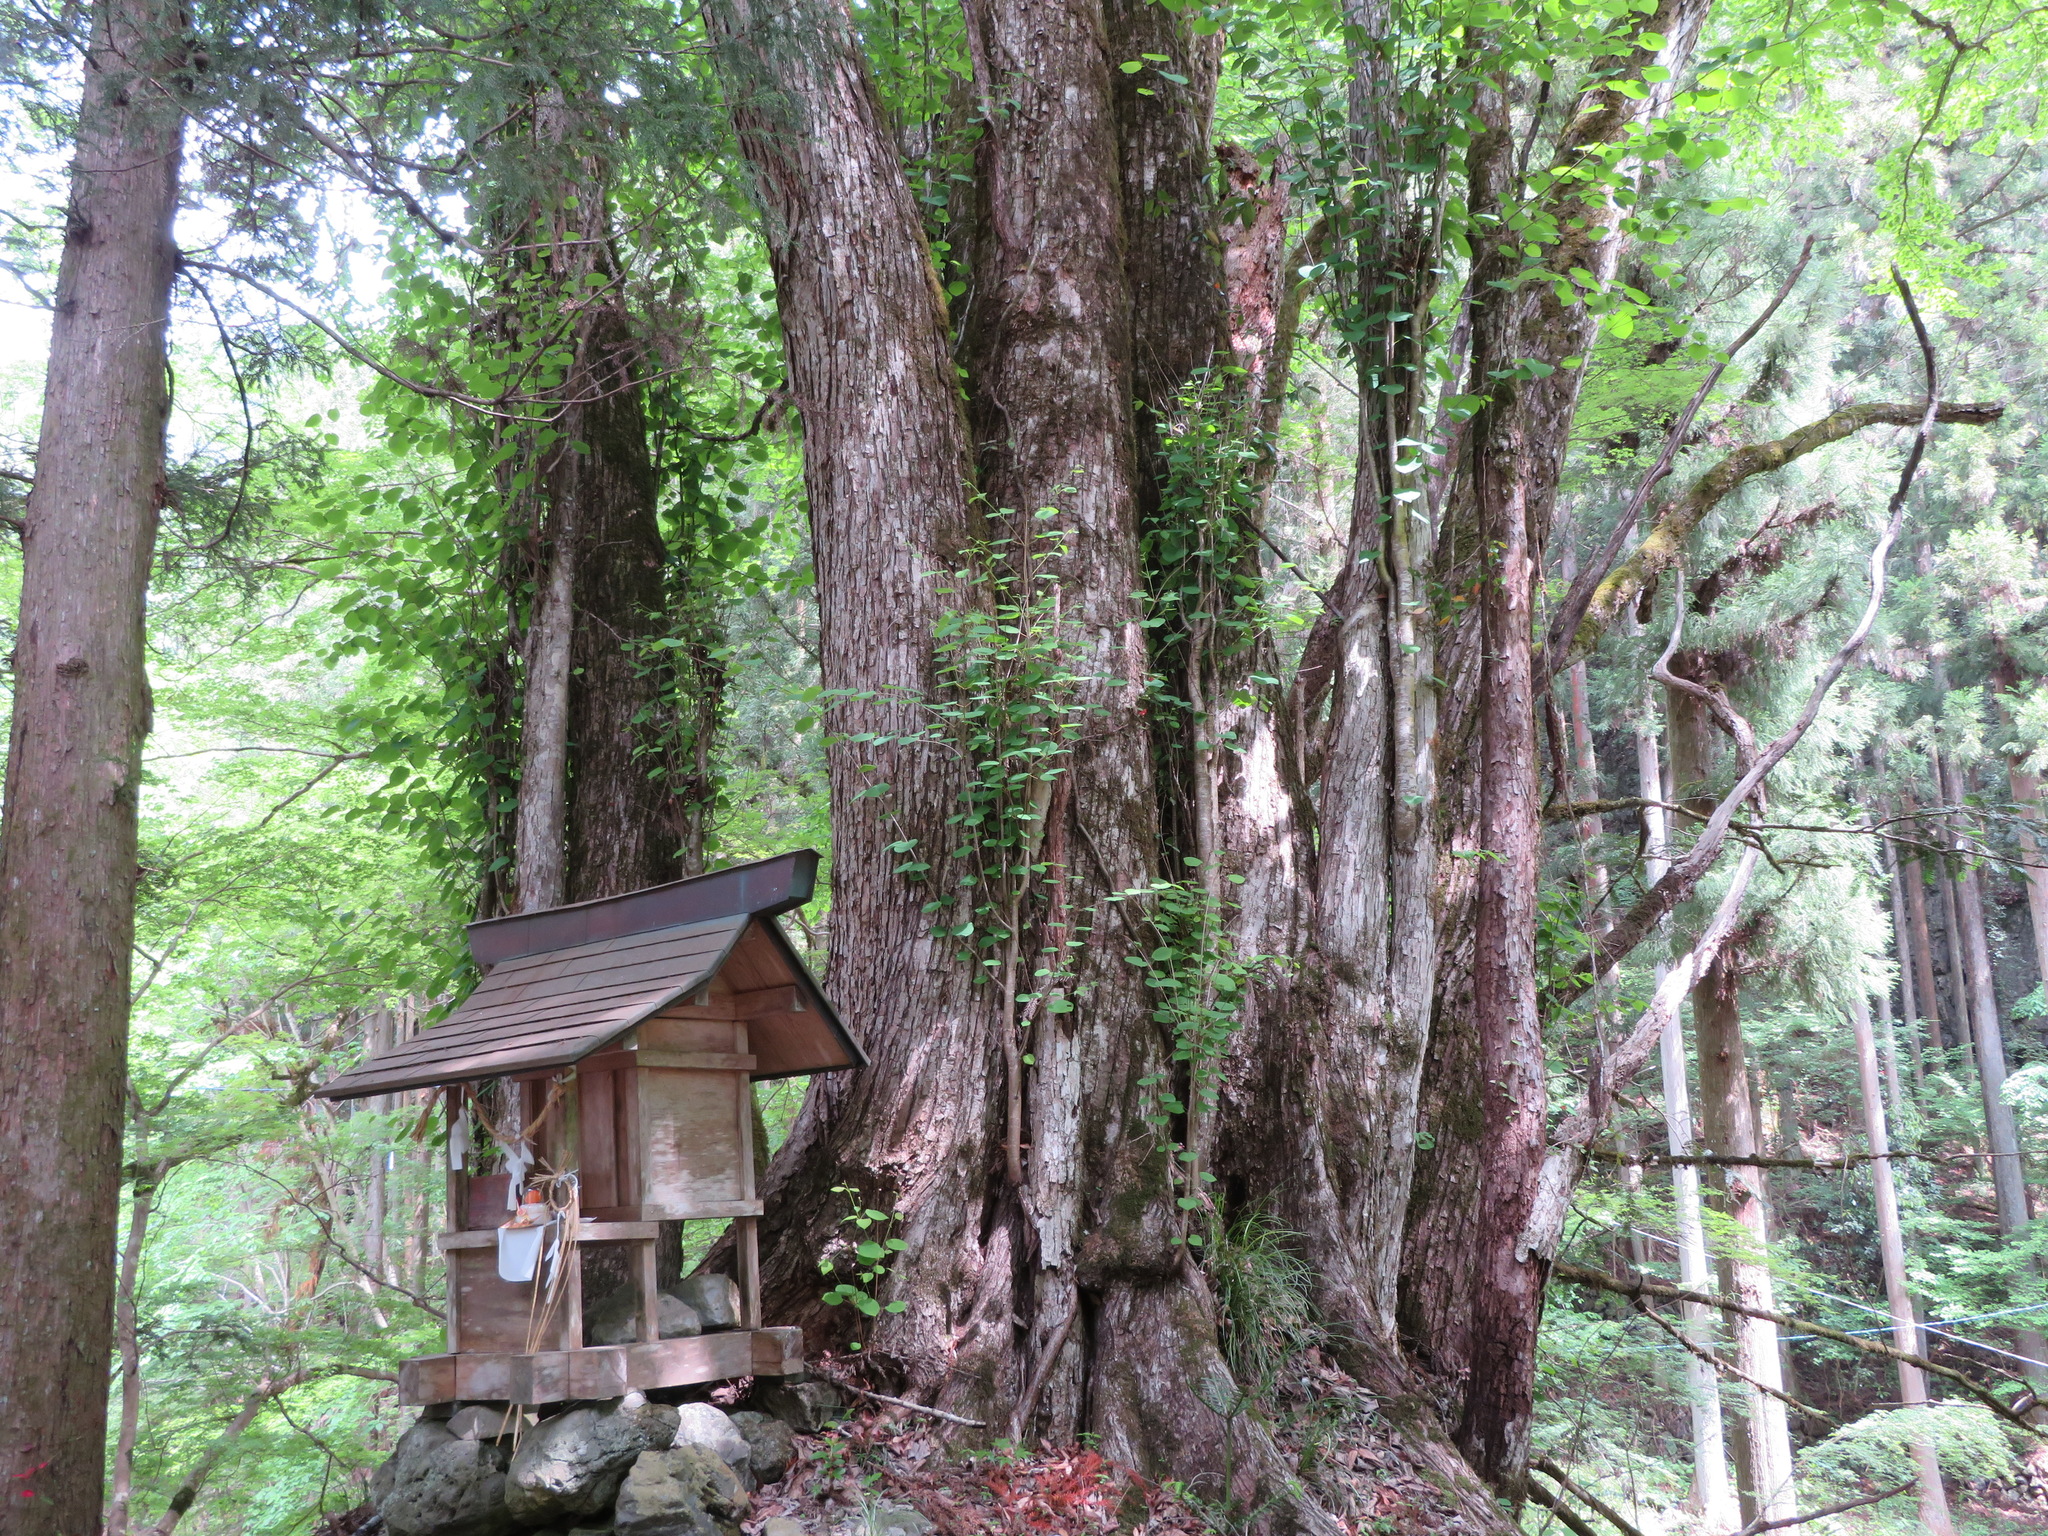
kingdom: Plantae
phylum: Tracheophyta
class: Magnoliopsida
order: Saxifragales
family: Cercidiphyllaceae
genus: Cercidiphyllum
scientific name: Cercidiphyllum japonicum
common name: Katsura tree
